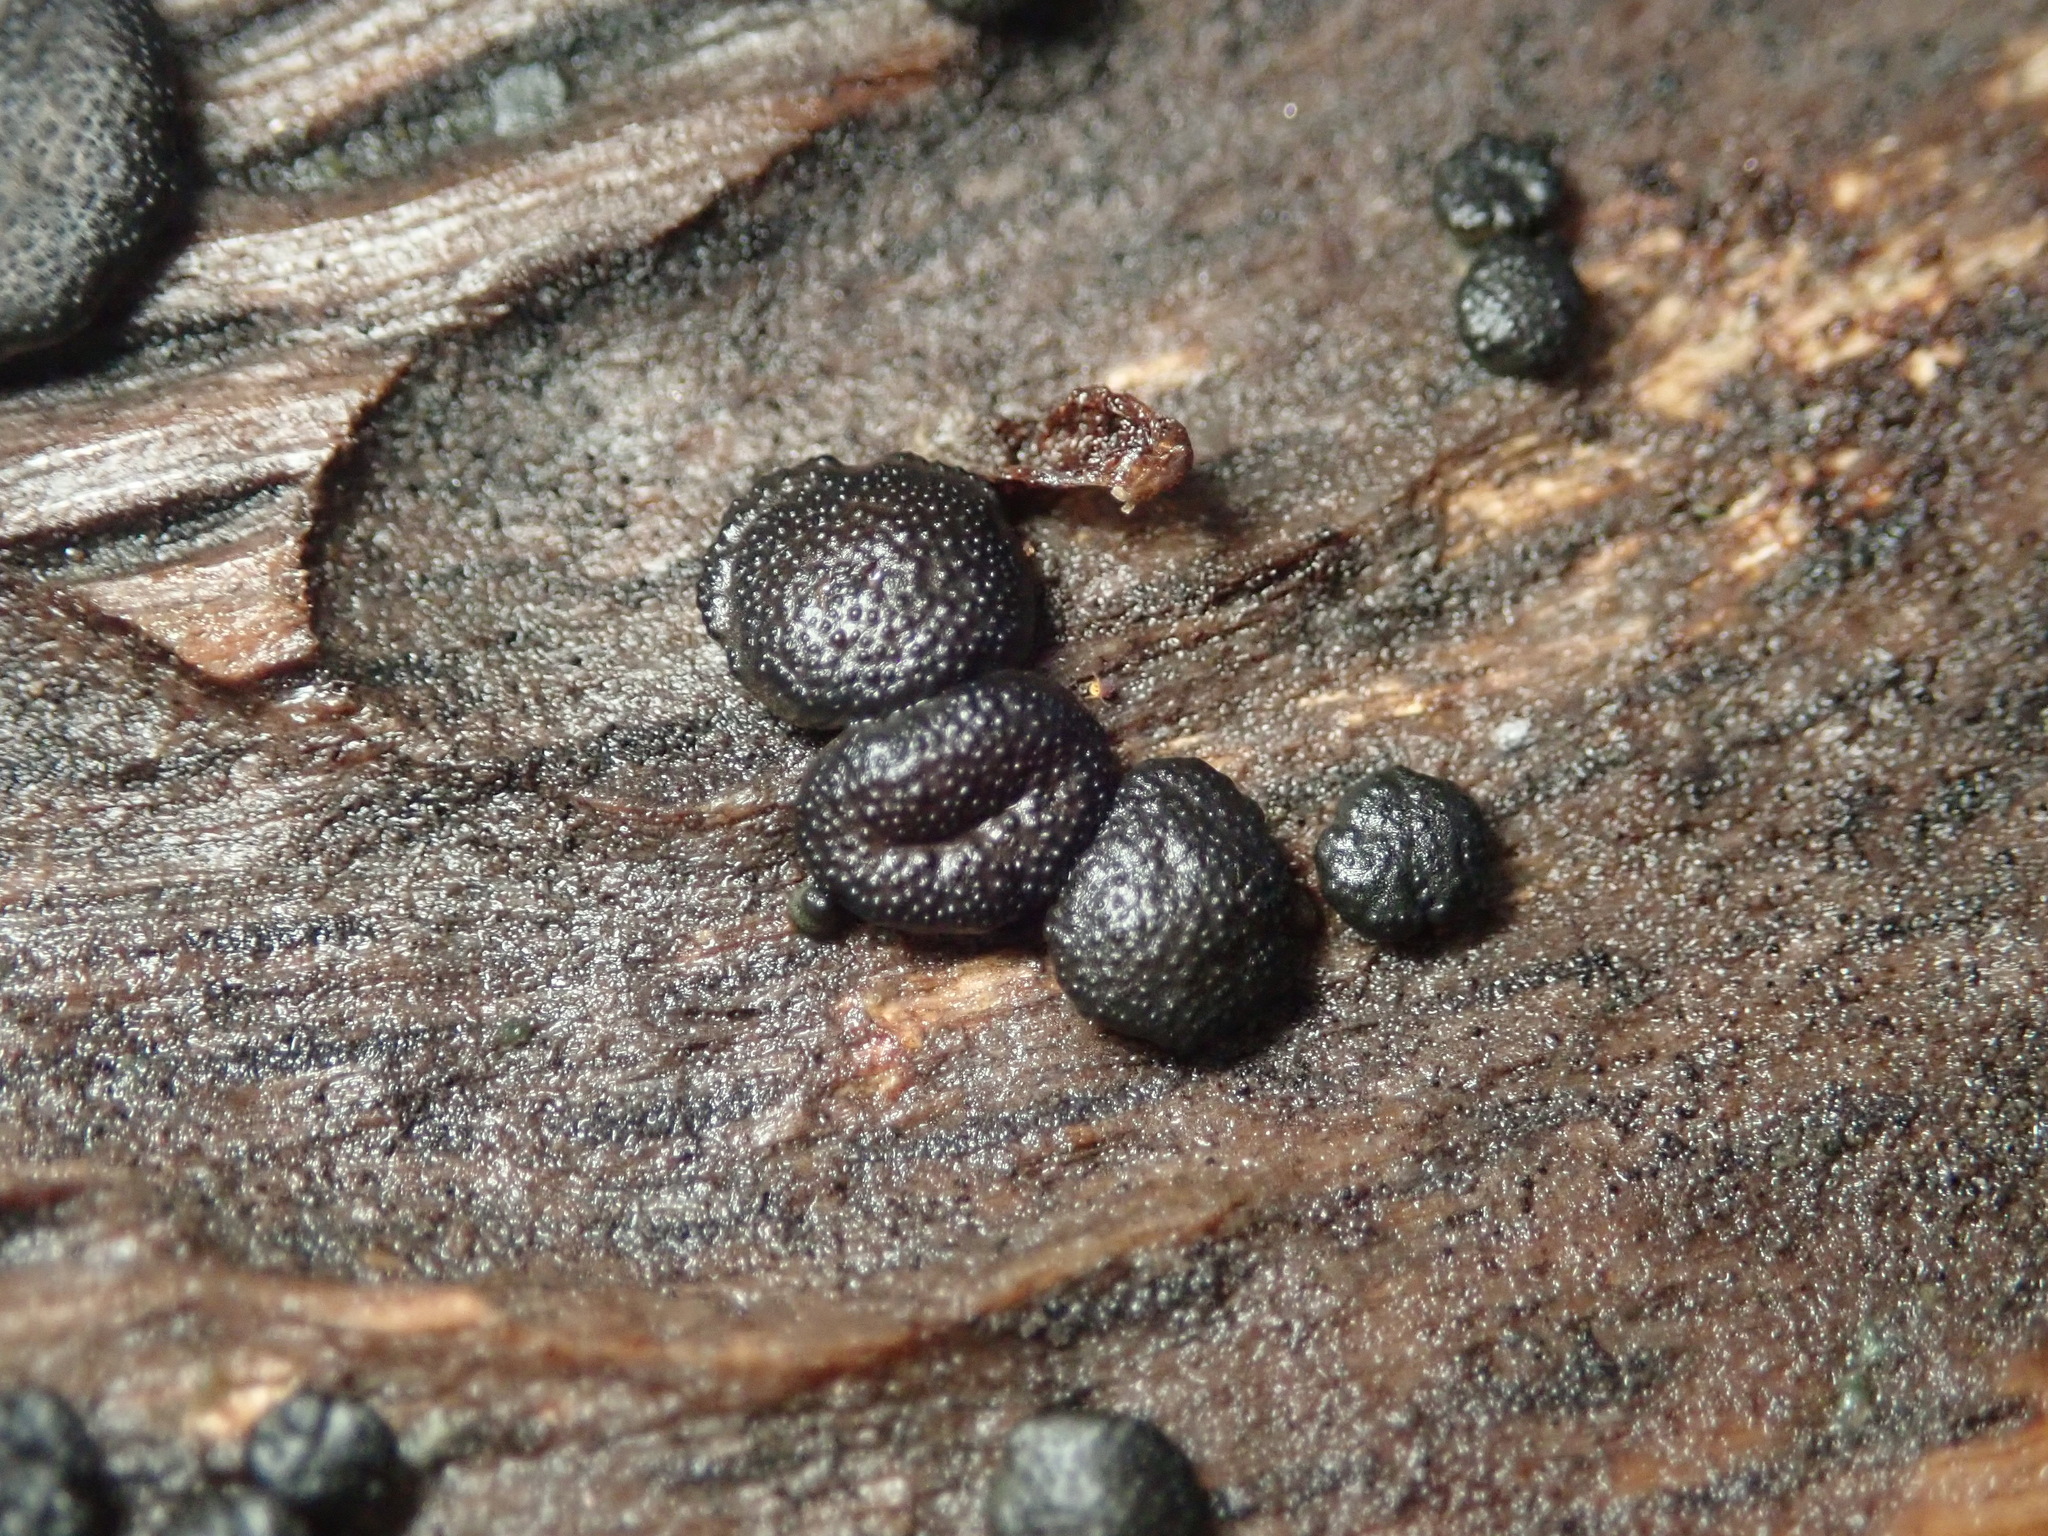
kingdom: Fungi
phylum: Ascomycota
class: Sordariomycetes
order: Xylariales
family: Hypoxylaceae
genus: Annulohypoxylon
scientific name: Annulohypoxylon thouarsianum
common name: Cramp balls
